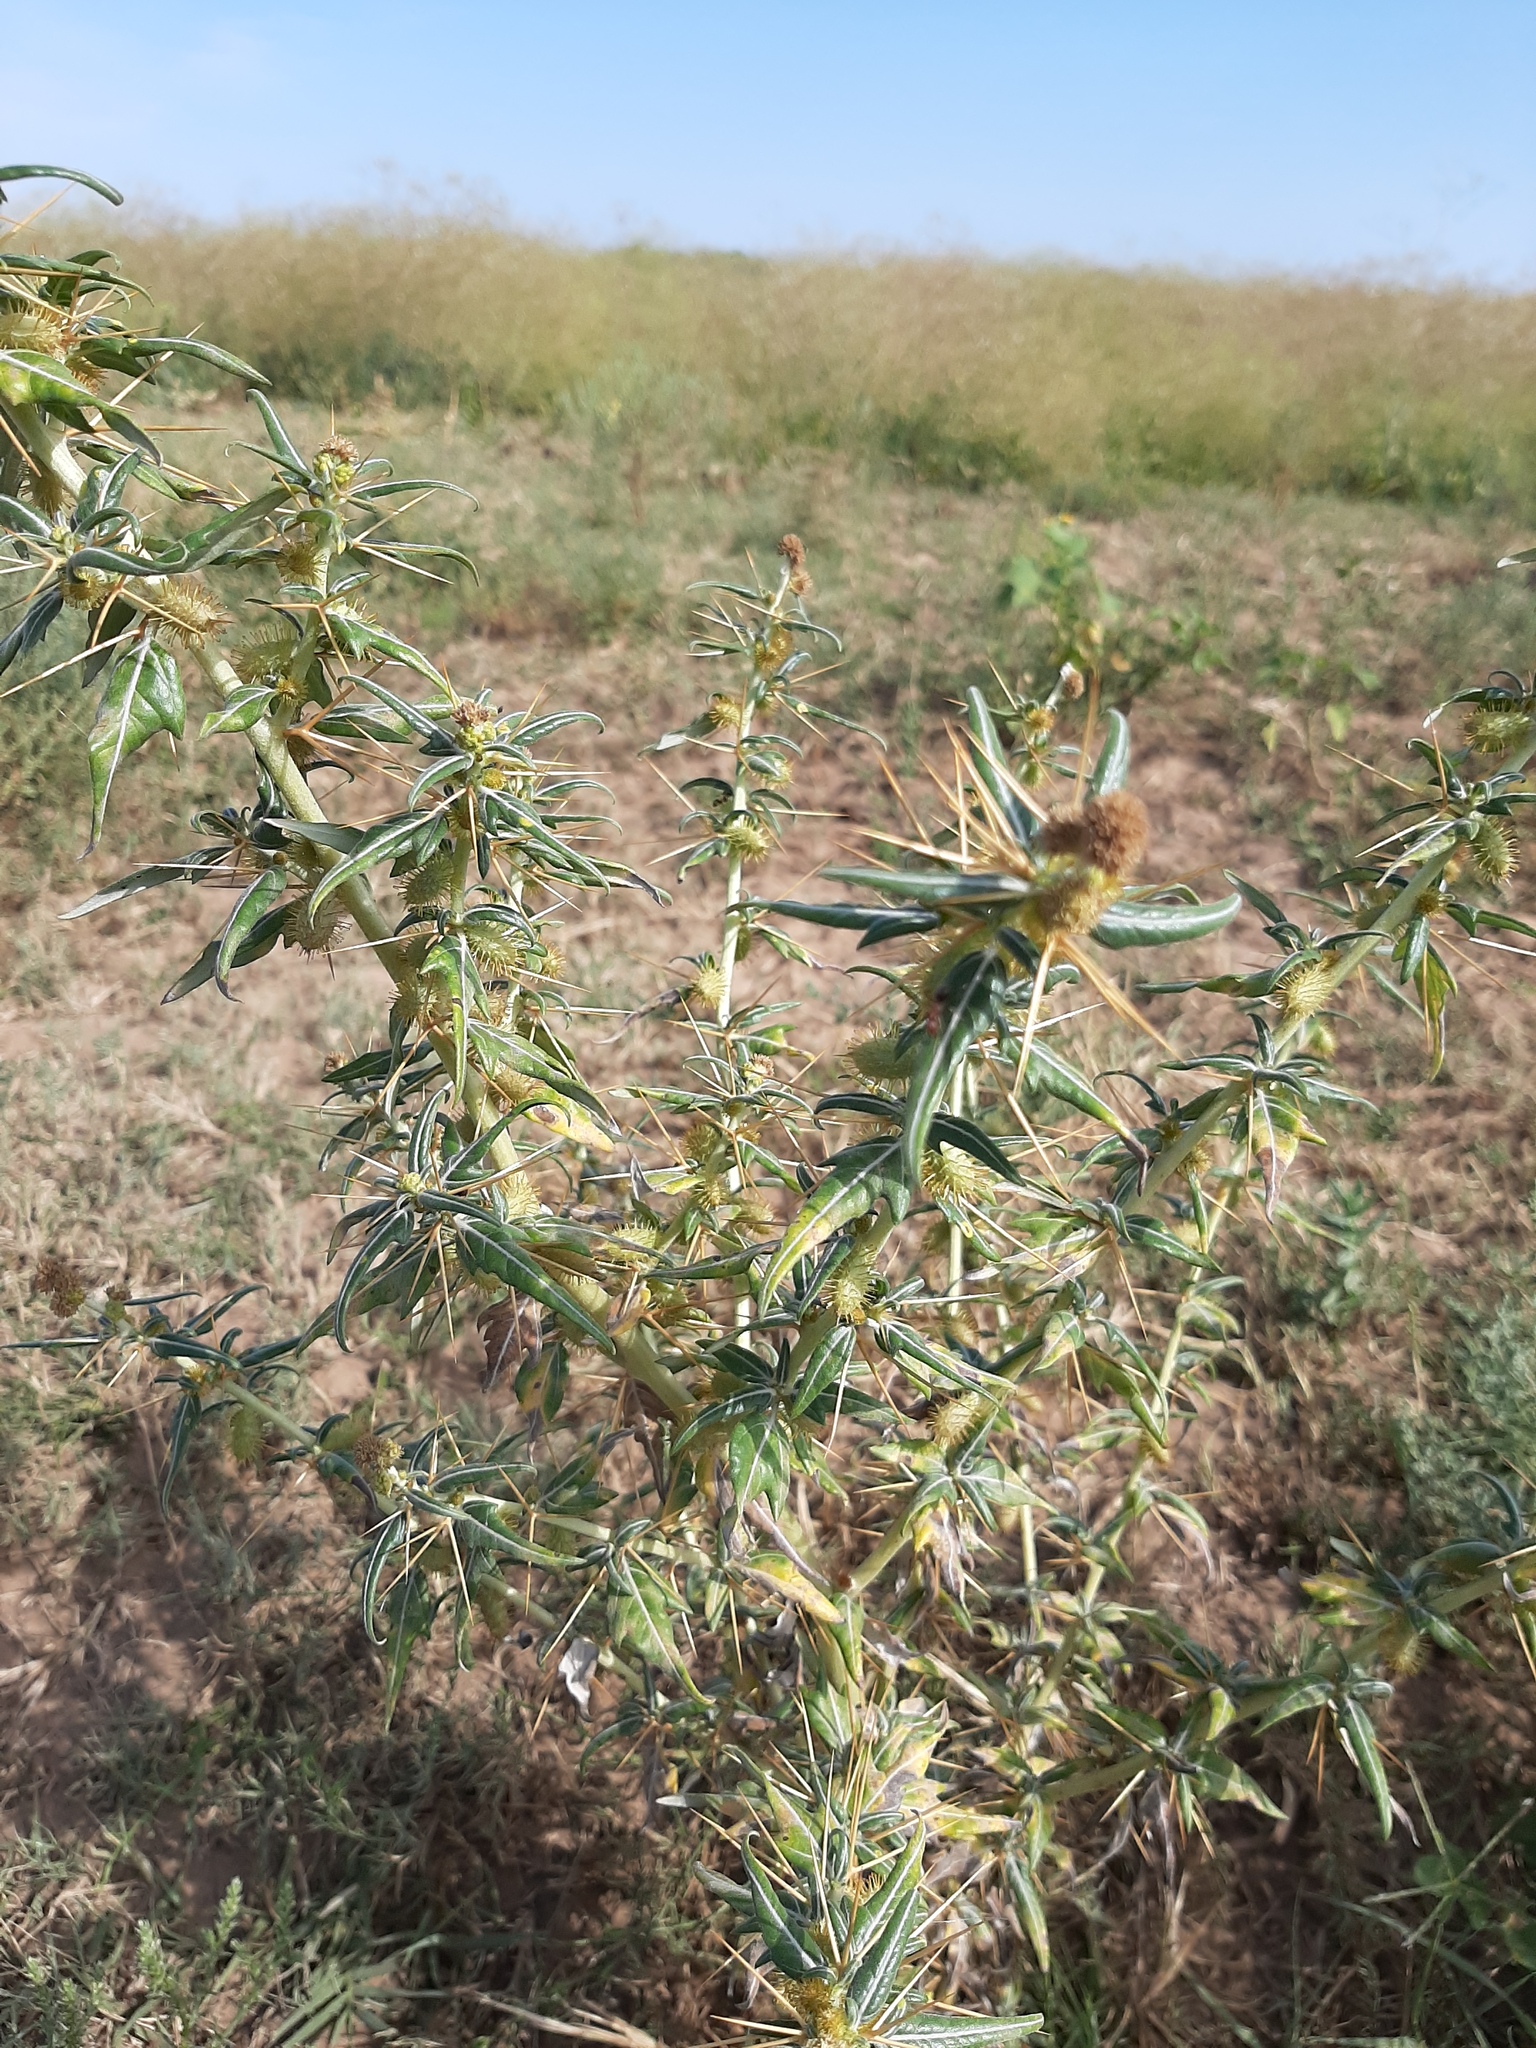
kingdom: Plantae
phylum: Tracheophyta
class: Magnoliopsida
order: Asterales
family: Asteraceae
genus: Xanthium
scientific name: Xanthium spinosum
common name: Spiny cocklebur
